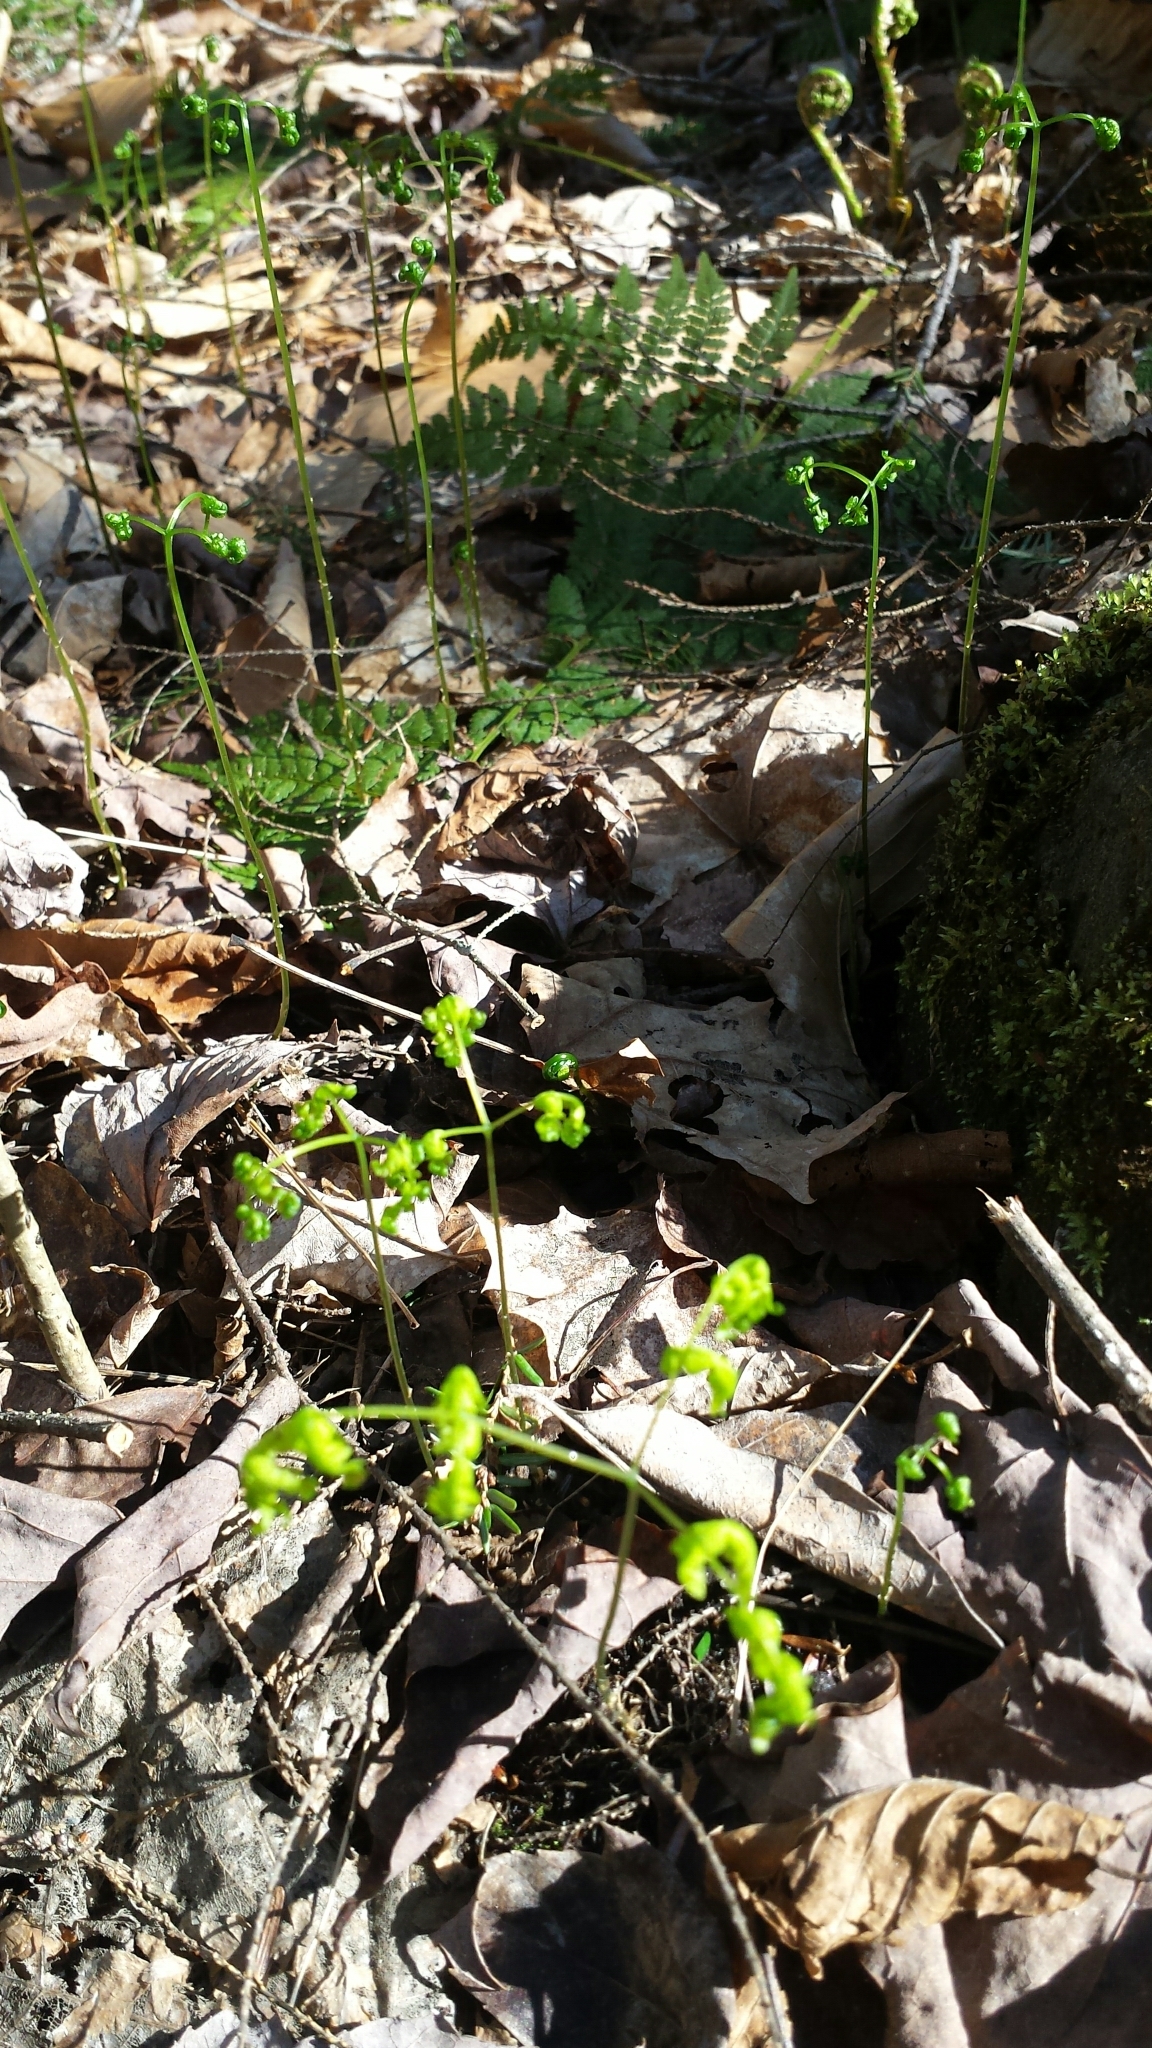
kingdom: Plantae
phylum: Tracheophyta
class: Polypodiopsida
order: Polypodiales
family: Cystopteridaceae
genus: Gymnocarpium
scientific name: Gymnocarpium dryopteris
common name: Oak fern
